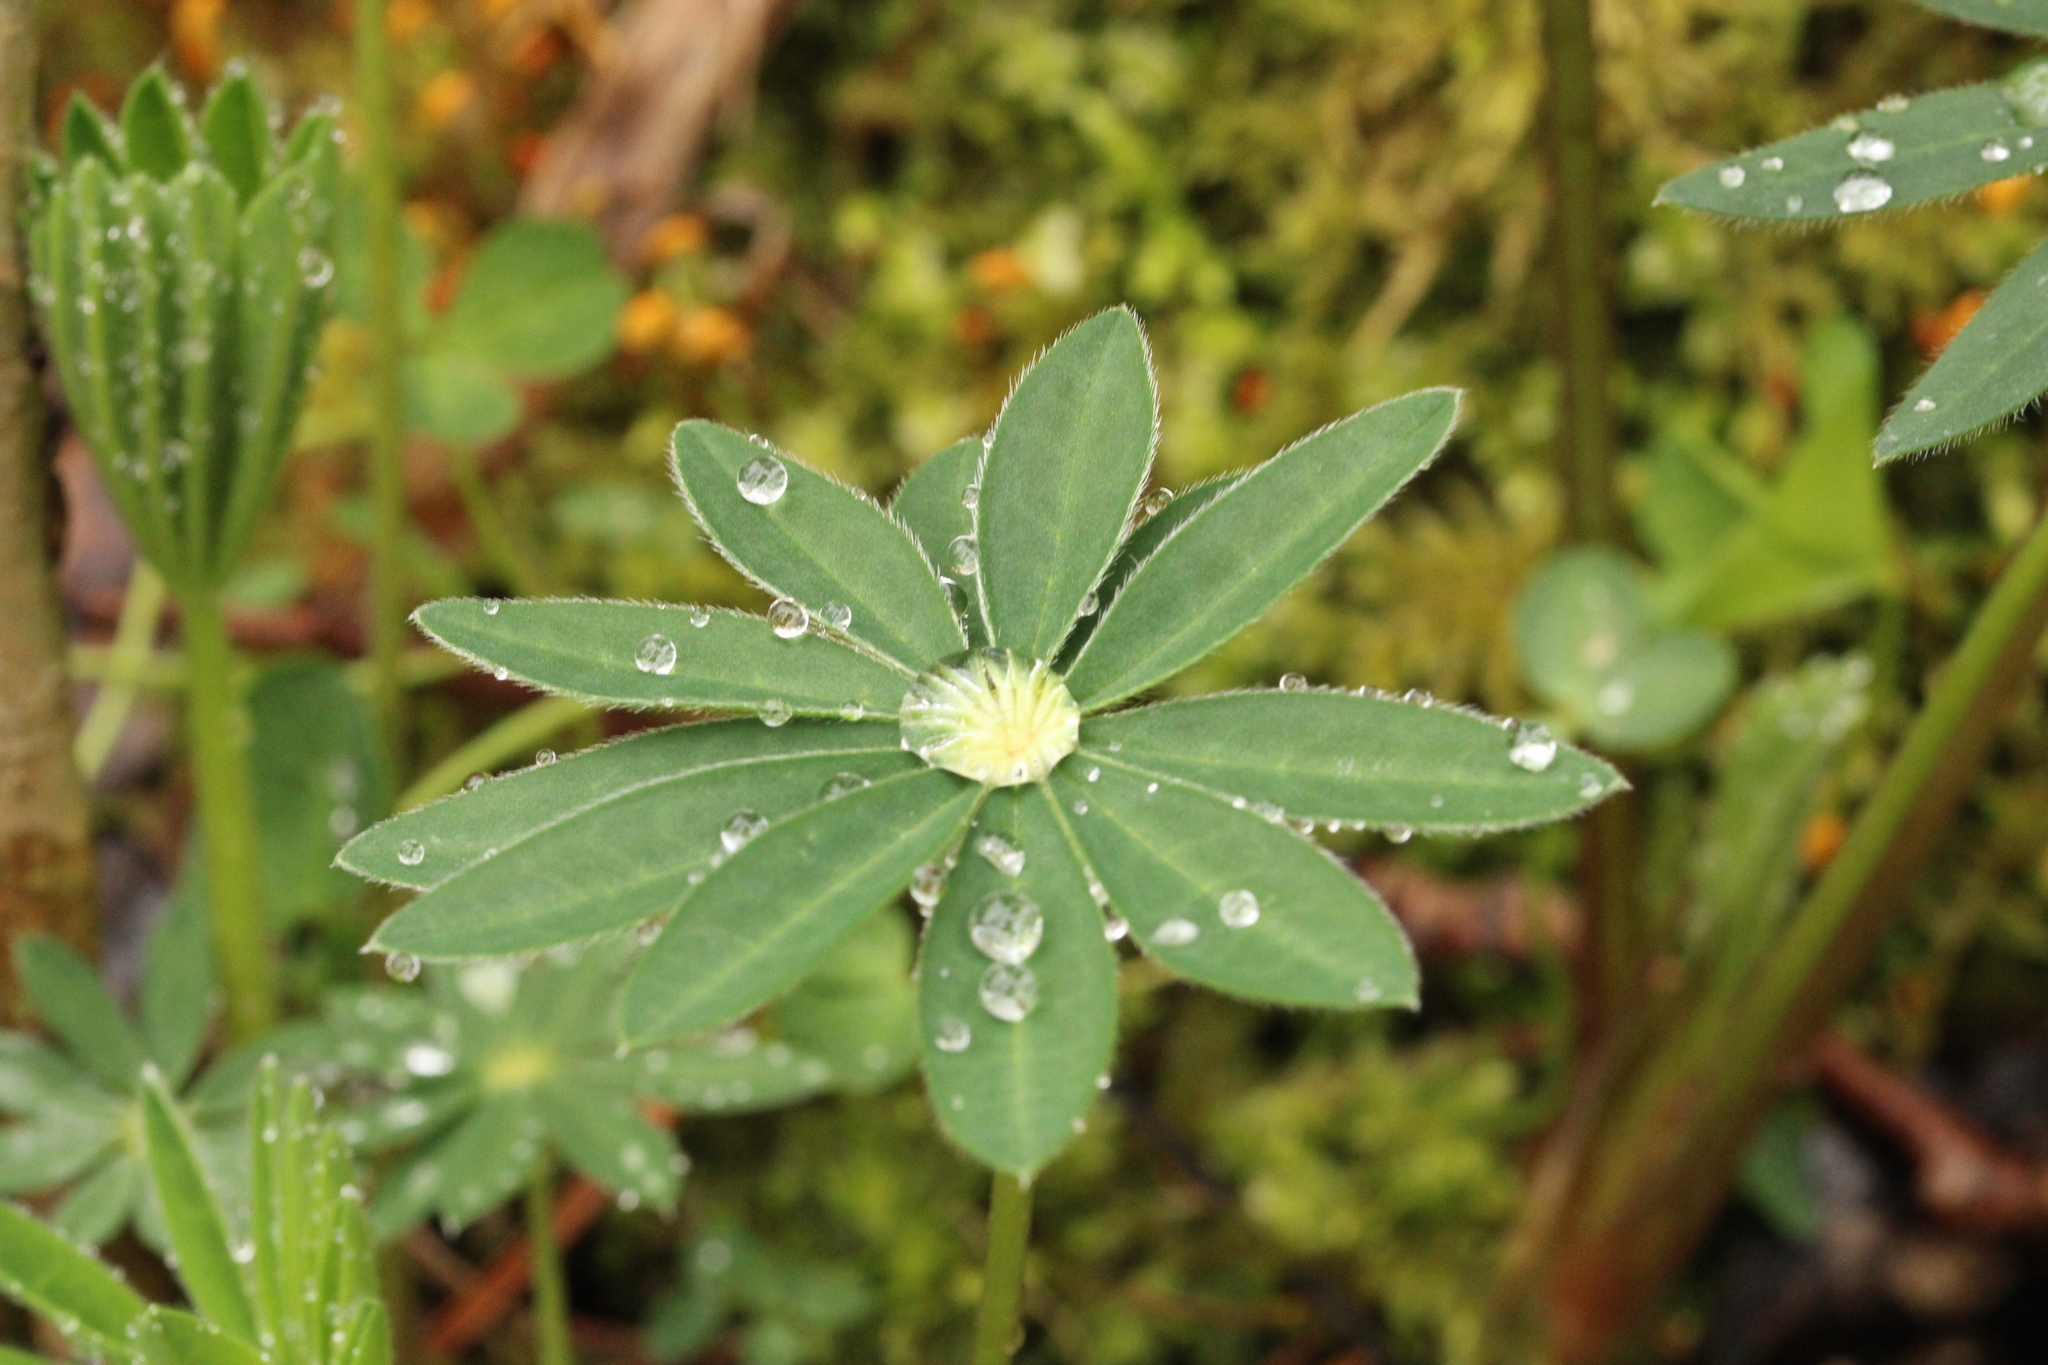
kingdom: Plantae
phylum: Tracheophyta
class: Magnoliopsida
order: Fabales
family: Fabaceae
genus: Lupinus
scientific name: Lupinus polyphyllus
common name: Garden lupin
